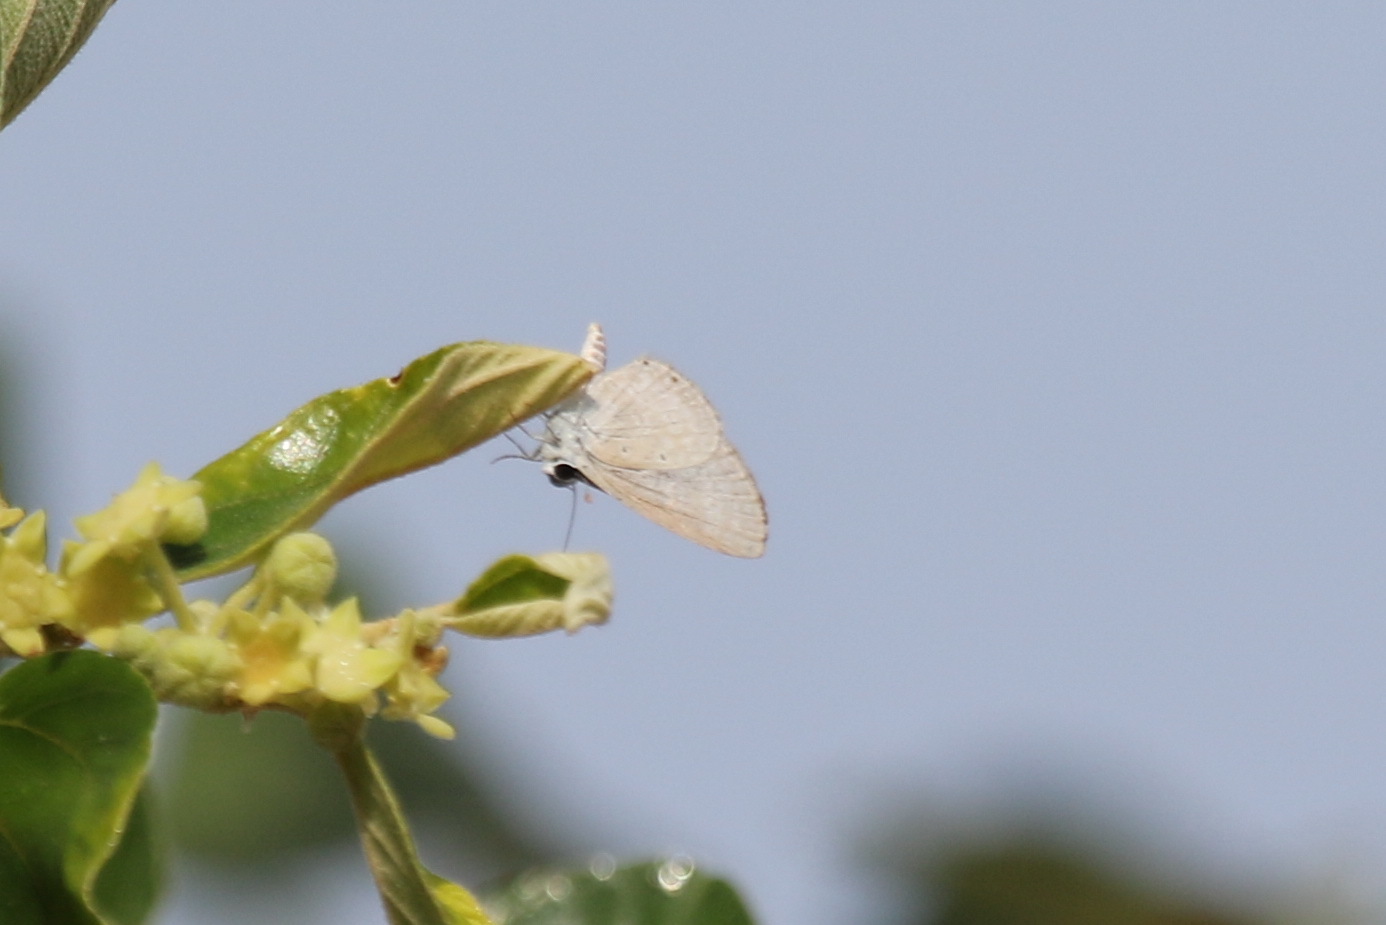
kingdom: Animalia
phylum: Arthropoda
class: Insecta
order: Lepidoptera
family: Lycaenidae
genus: Luthrodes
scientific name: Luthrodes pandava
